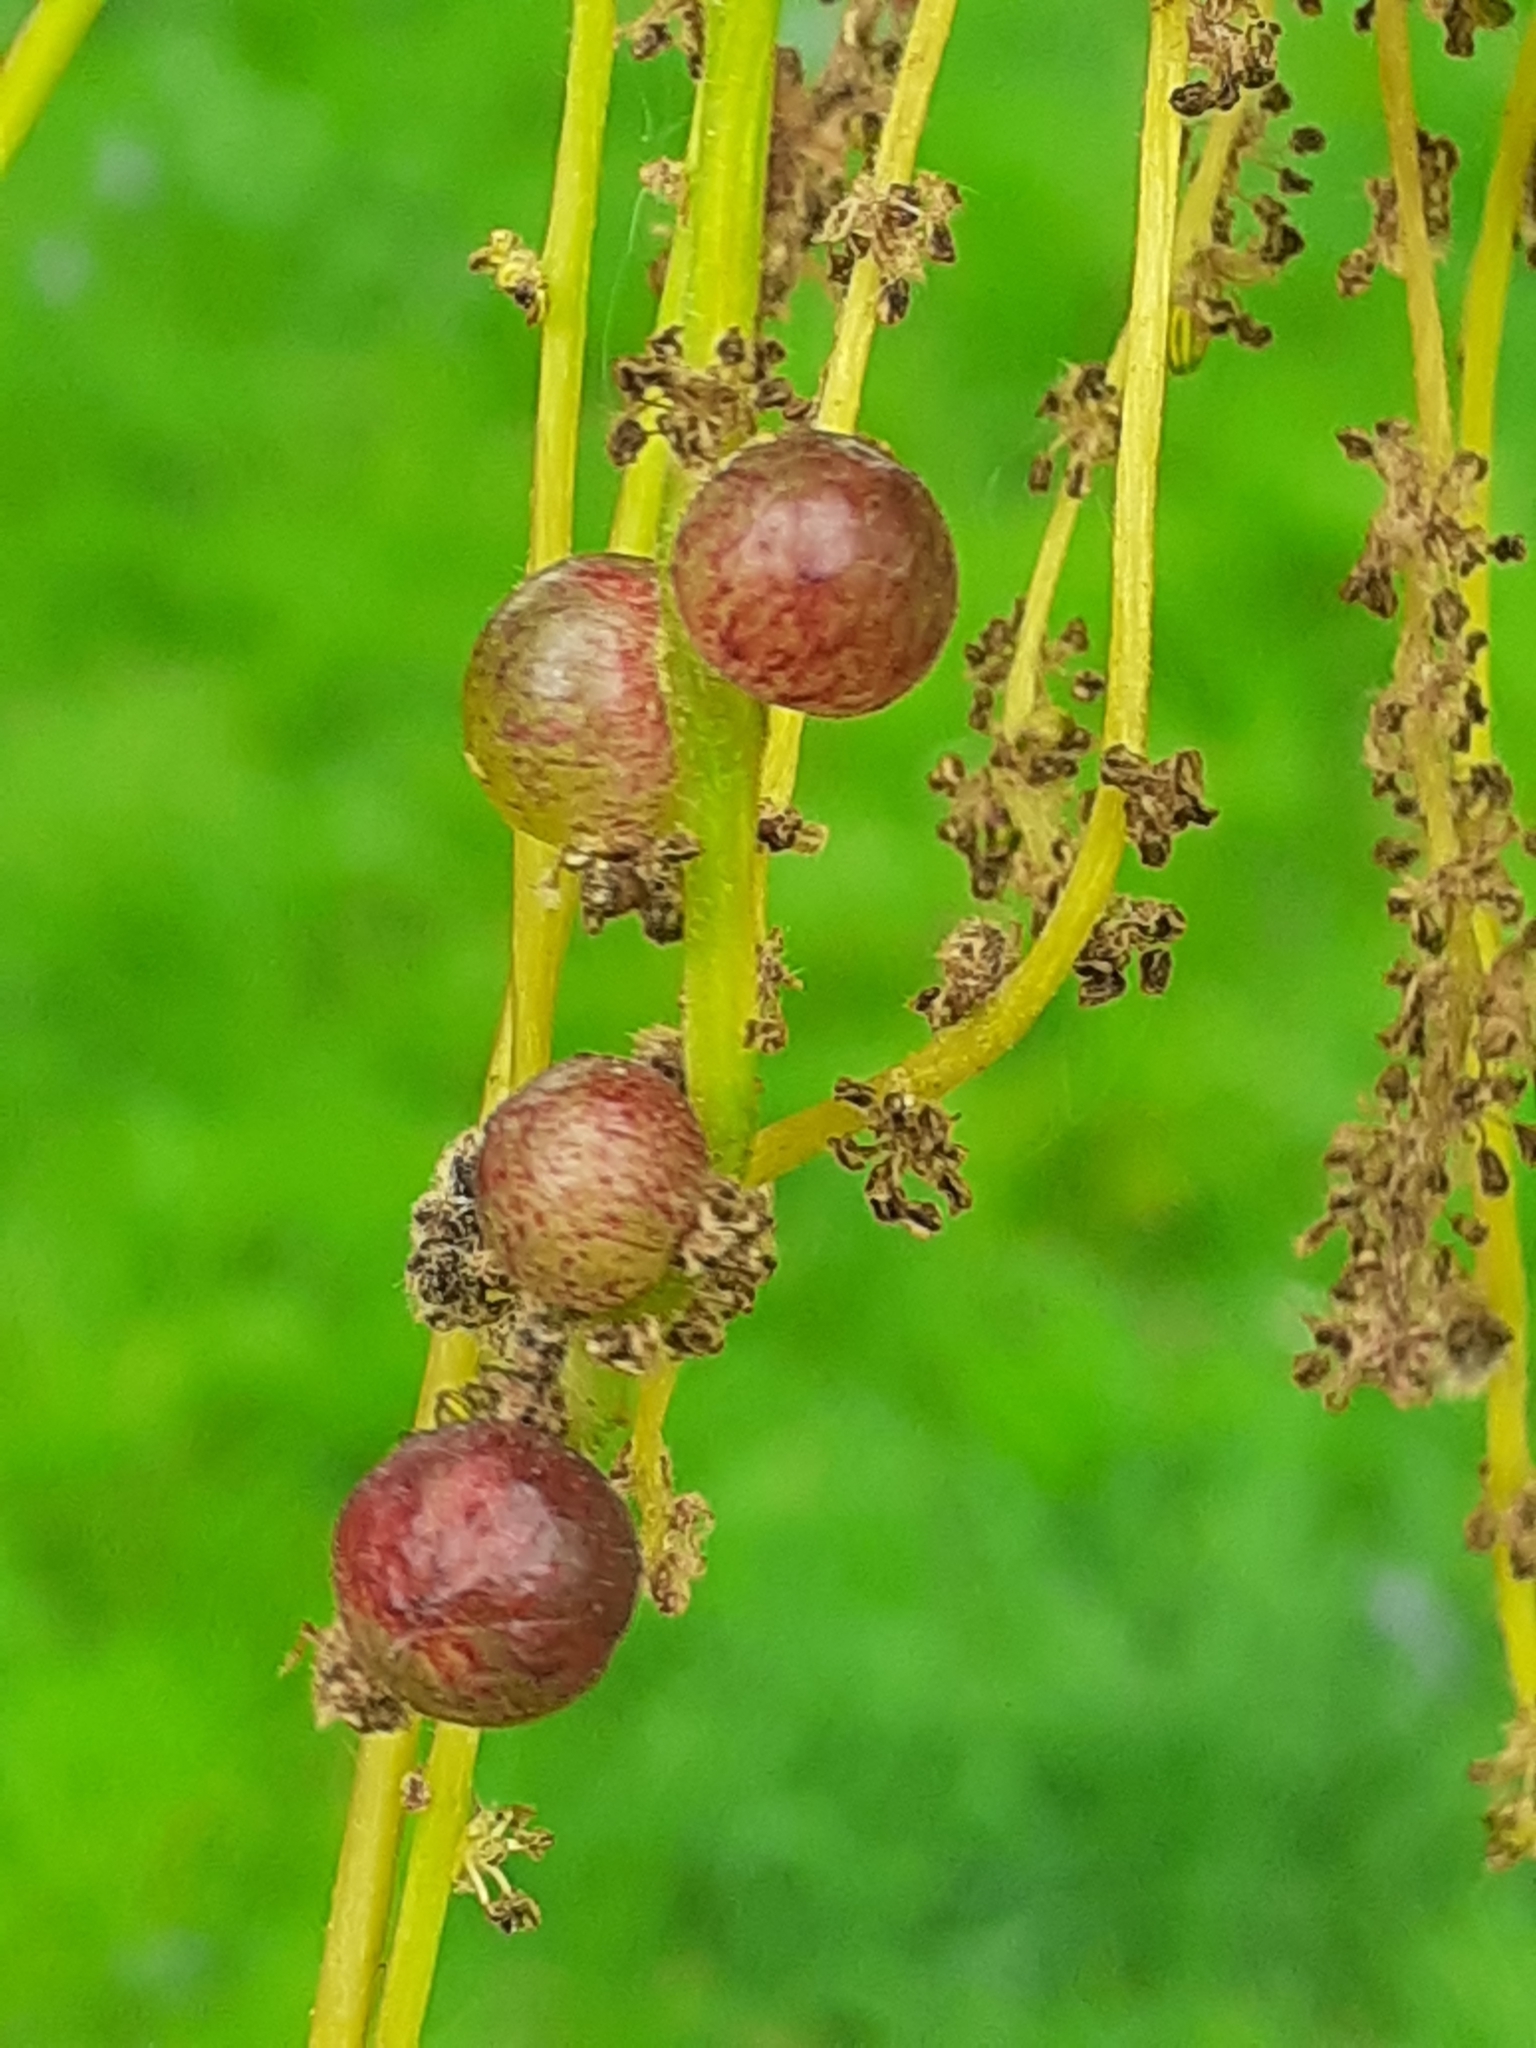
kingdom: Animalia
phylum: Arthropoda
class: Insecta
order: Hymenoptera
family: Cynipidae
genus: Neuroterus
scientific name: Neuroterus quercusbaccarum
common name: Common spangle gall
